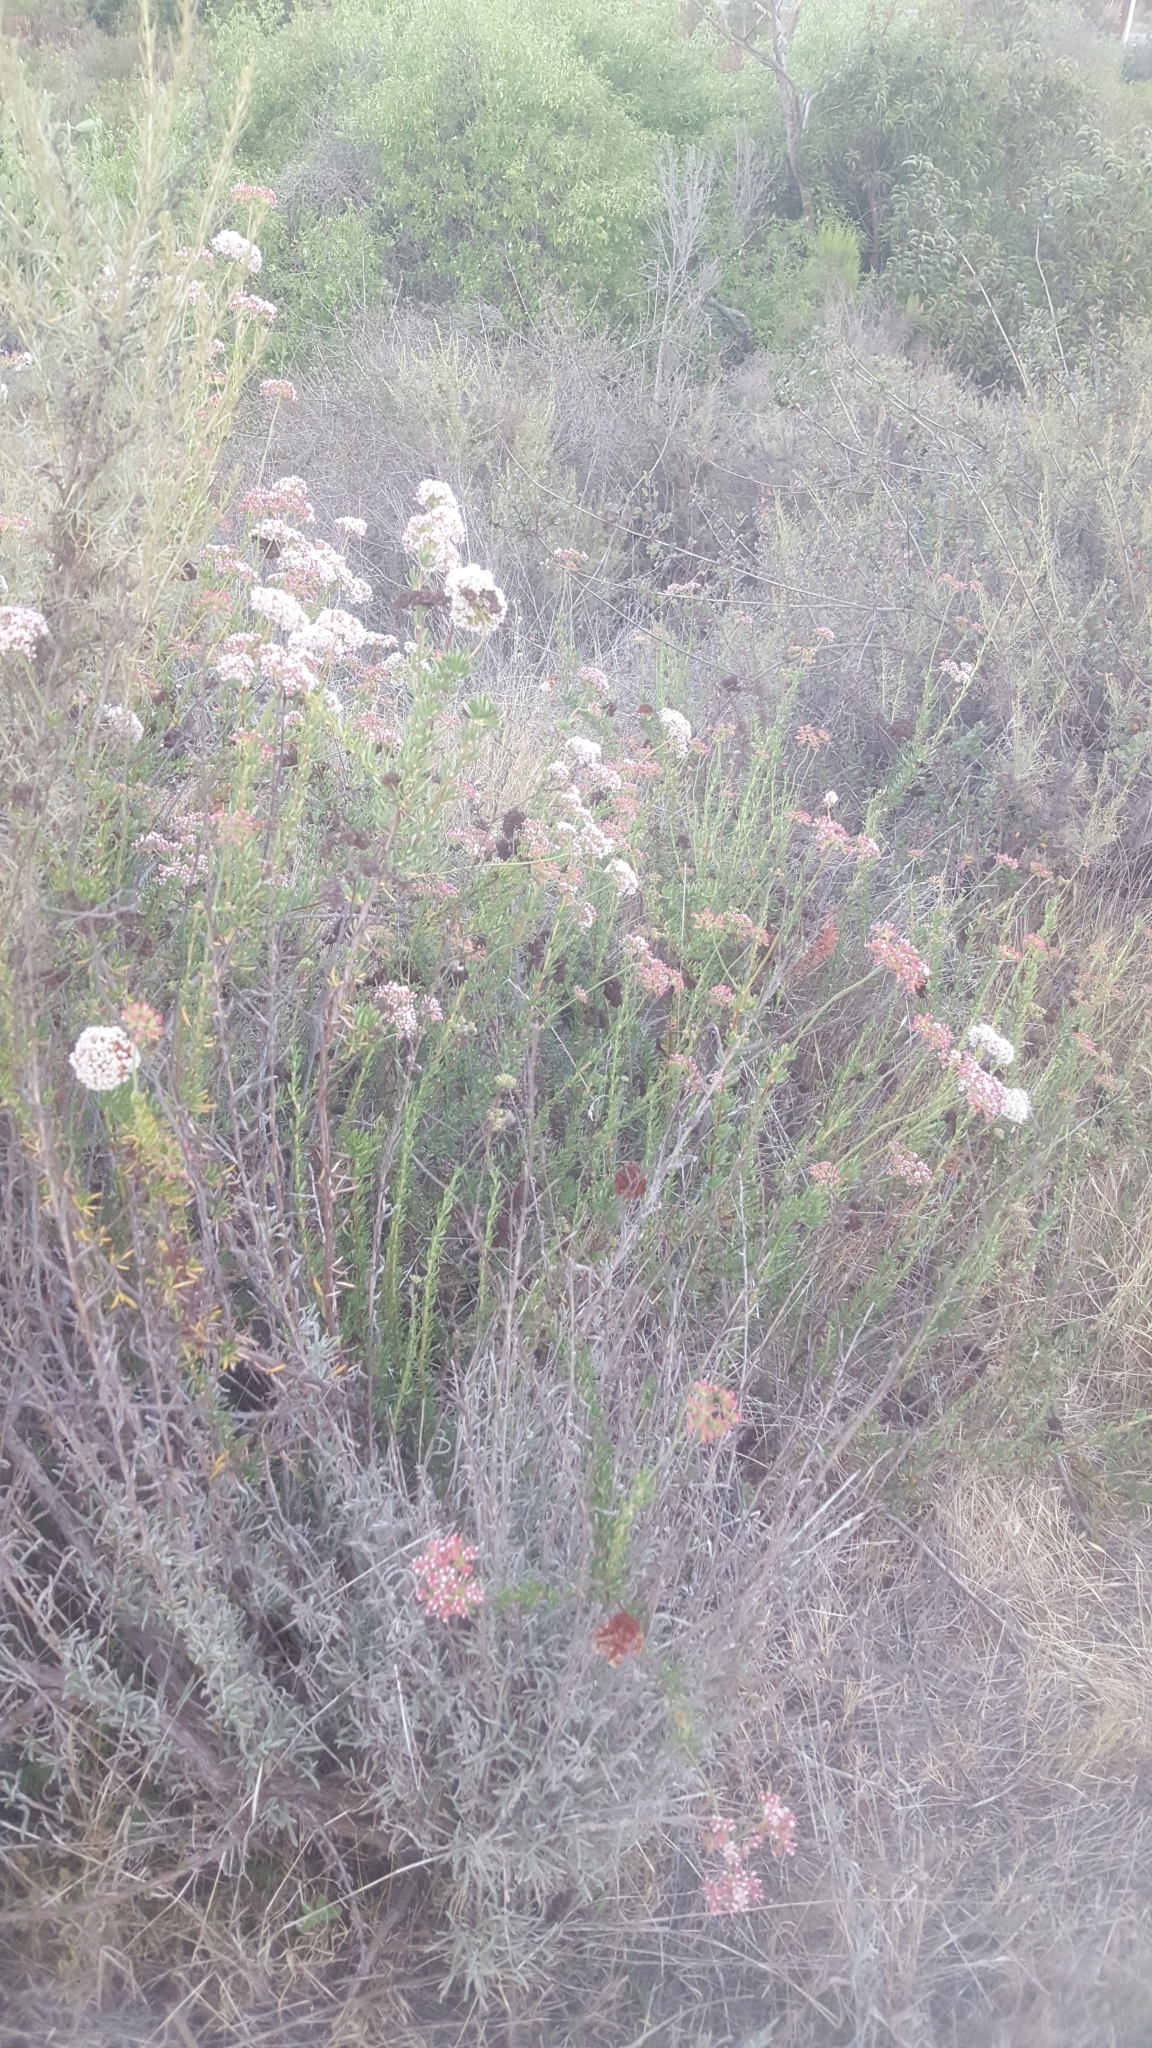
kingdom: Plantae
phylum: Tracheophyta
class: Magnoliopsida
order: Caryophyllales
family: Polygonaceae
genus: Eriogonum
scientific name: Eriogonum fasciculatum
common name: California wild buckwheat
